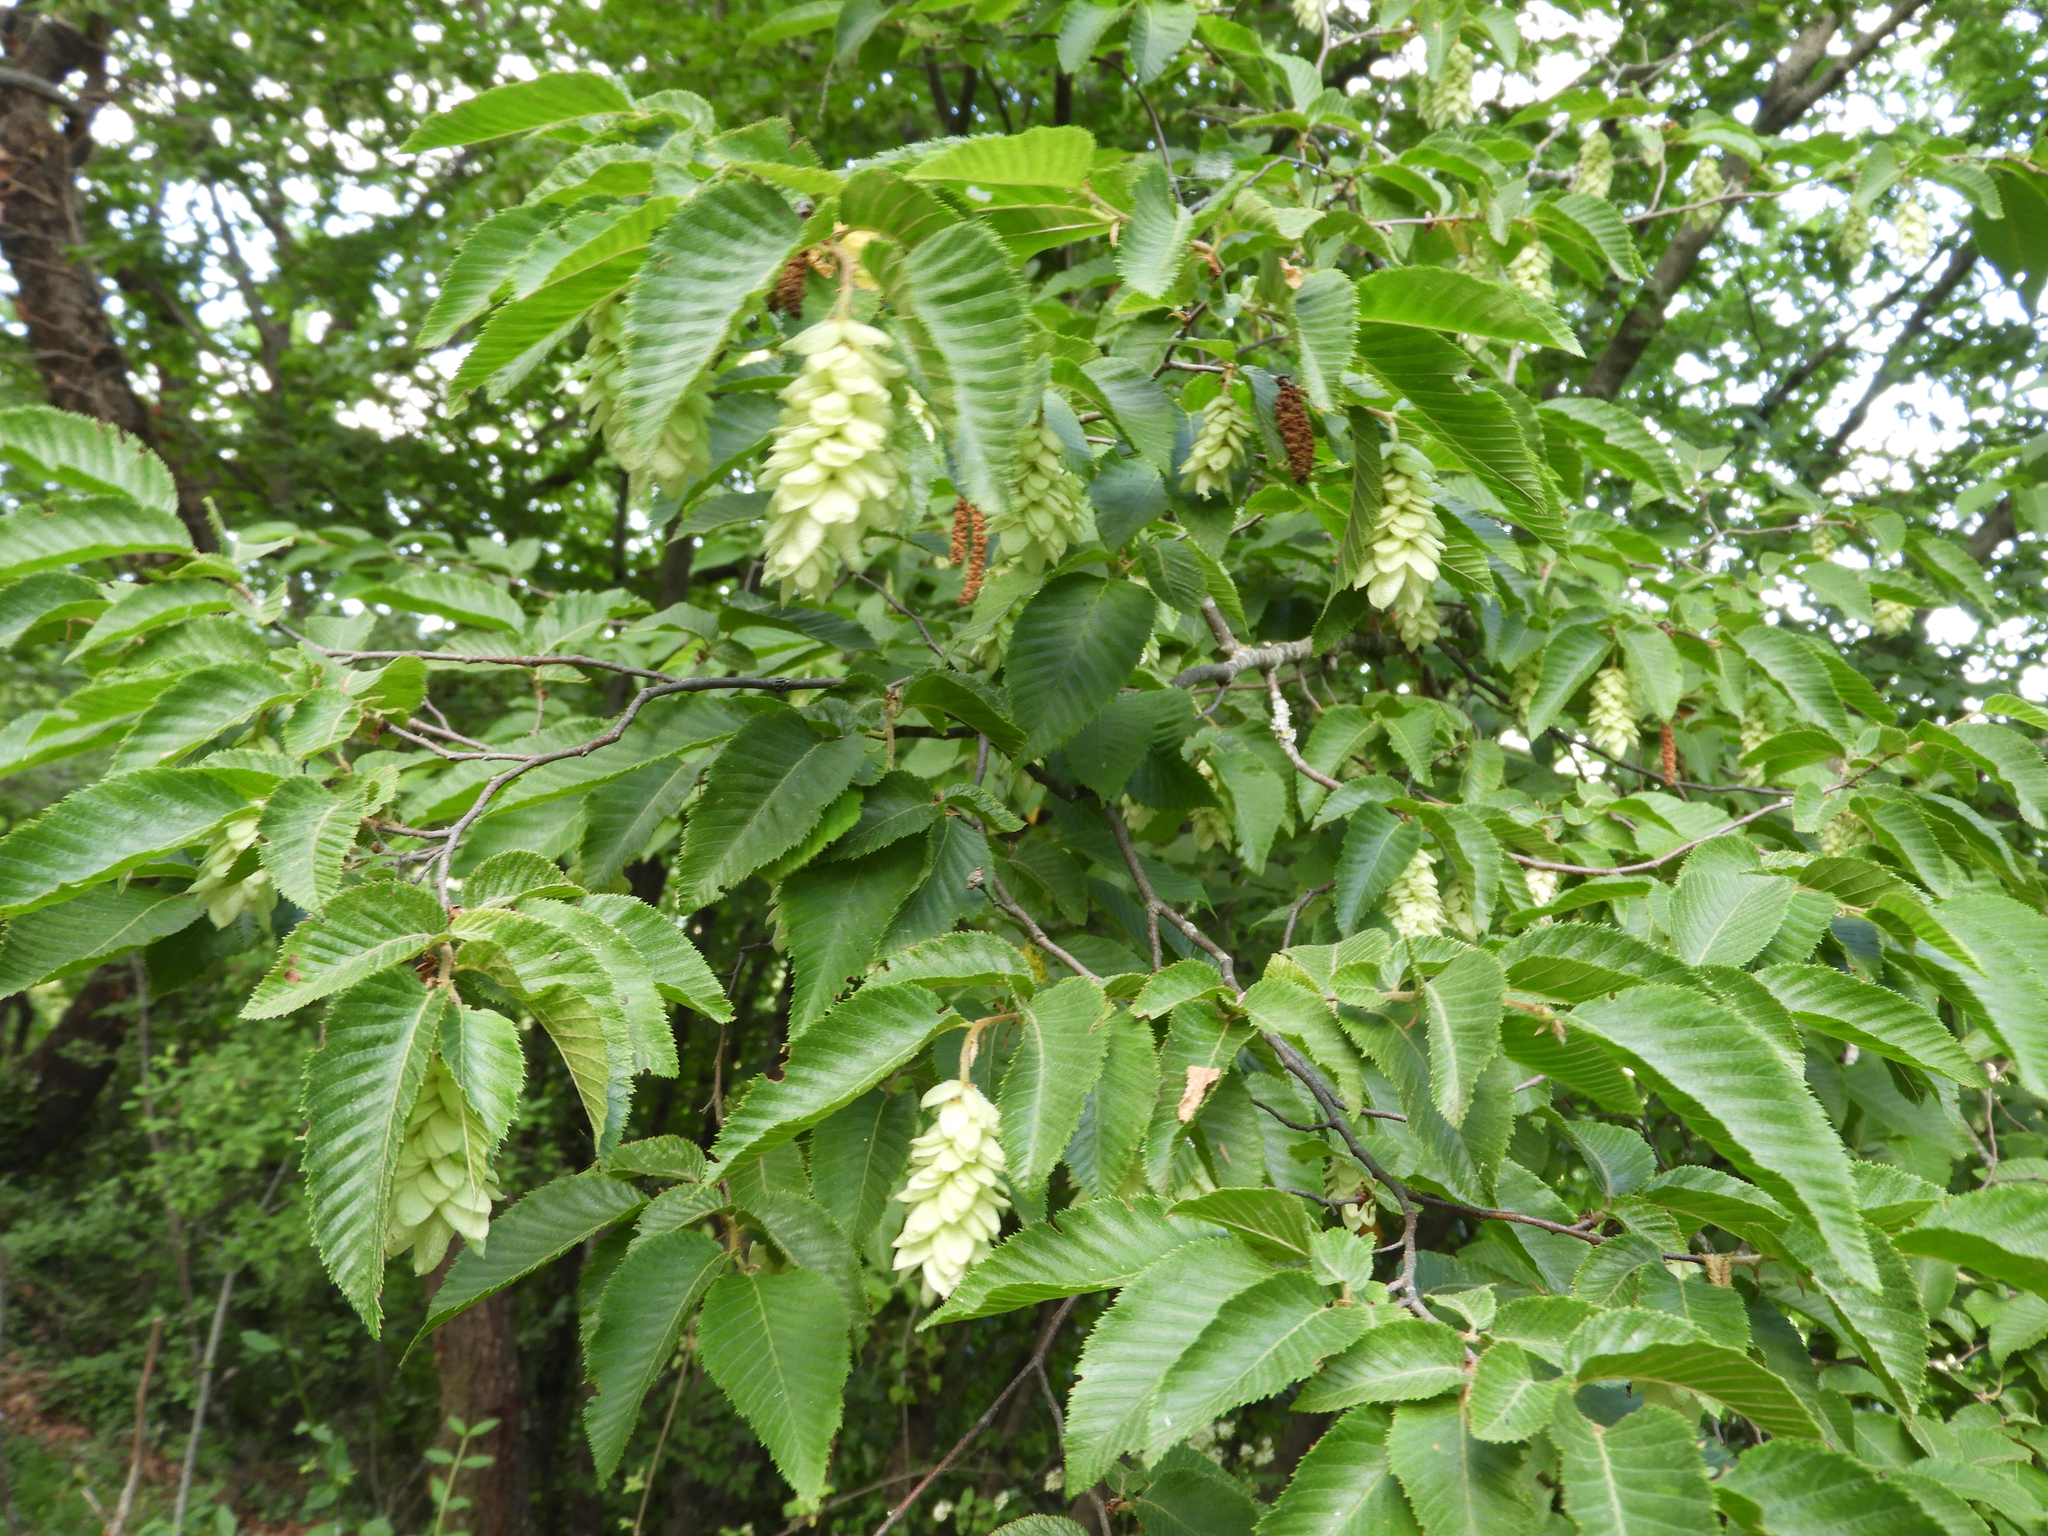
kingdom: Plantae
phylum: Tracheophyta
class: Magnoliopsida
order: Fagales
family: Betulaceae
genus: Ostrya
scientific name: Ostrya carpinifolia
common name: European hop-hornbeam
